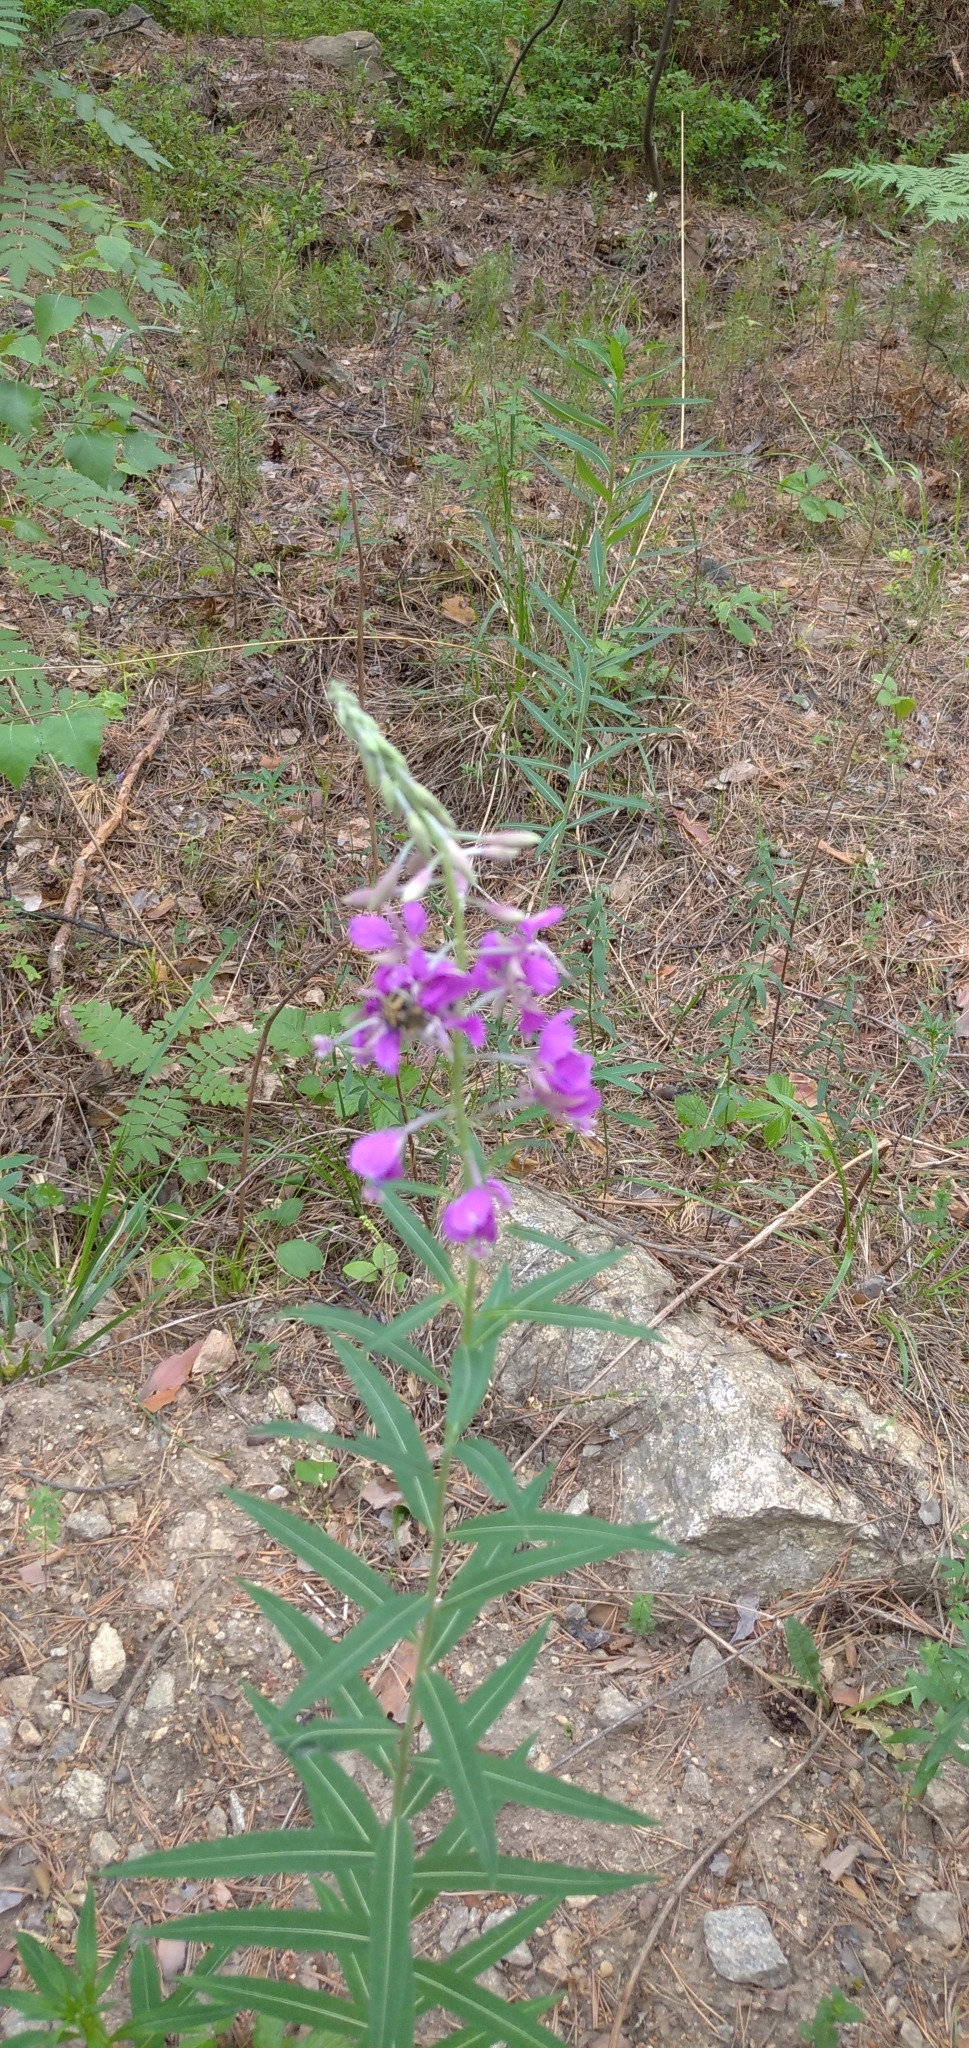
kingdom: Plantae
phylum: Tracheophyta
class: Magnoliopsida
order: Myrtales
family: Onagraceae
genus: Chamaenerion
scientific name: Chamaenerion angustifolium
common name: Fireweed
